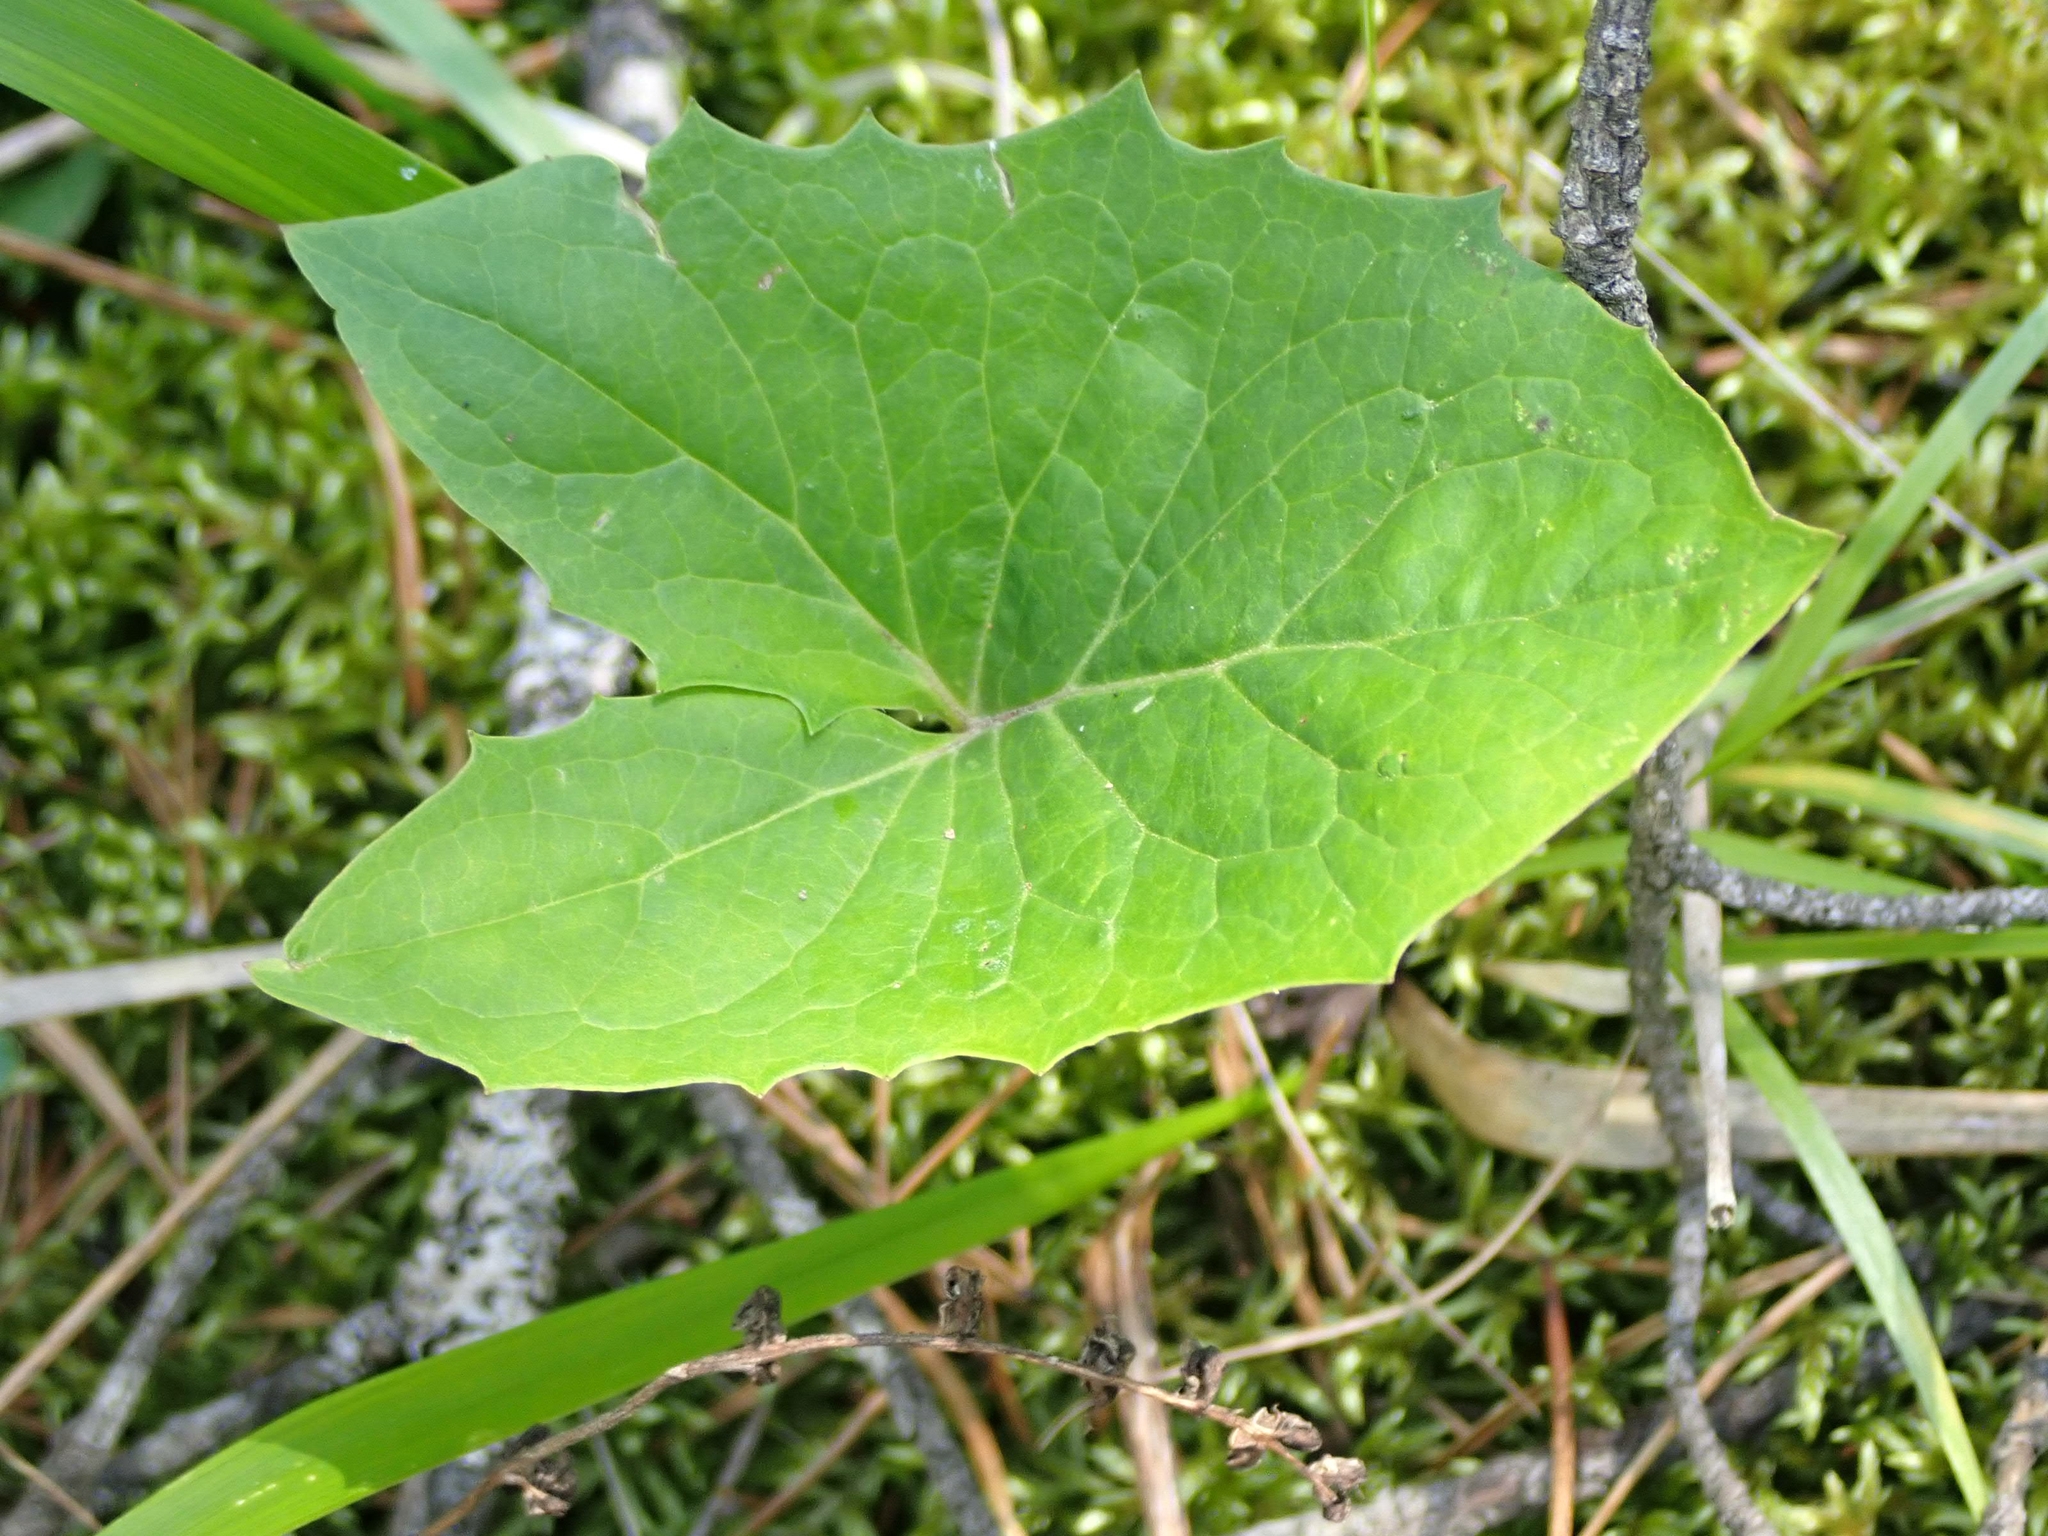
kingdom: Plantae
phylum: Tracheophyta
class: Magnoliopsida
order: Asterales
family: Asteraceae
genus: Petasites
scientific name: Petasites frigidus
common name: Arctic butterbur
